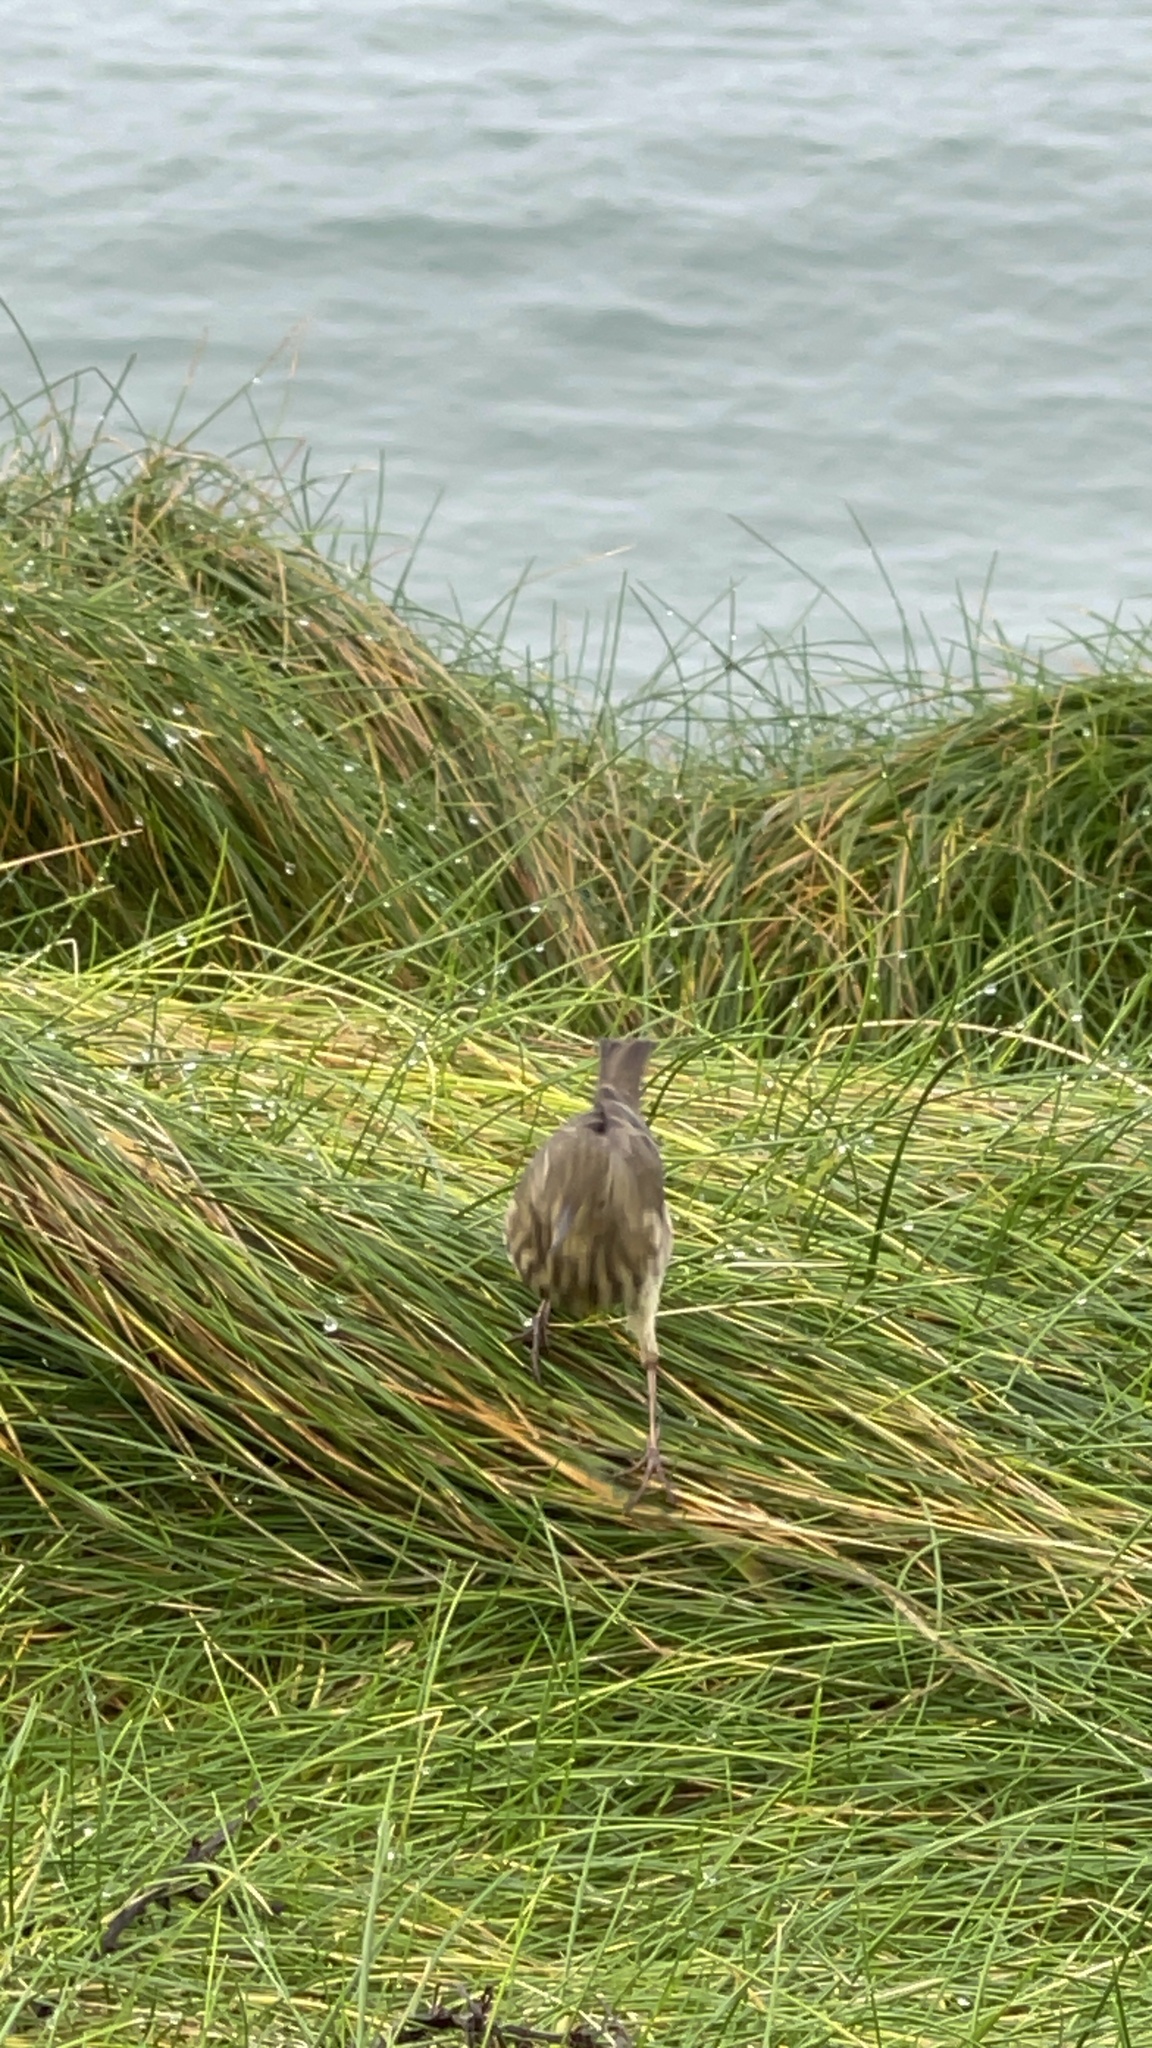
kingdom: Animalia
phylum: Chordata
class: Aves
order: Passeriformes
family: Motacillidae
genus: Anthus
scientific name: Anthus petrosus
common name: Eurasian rock pipit
